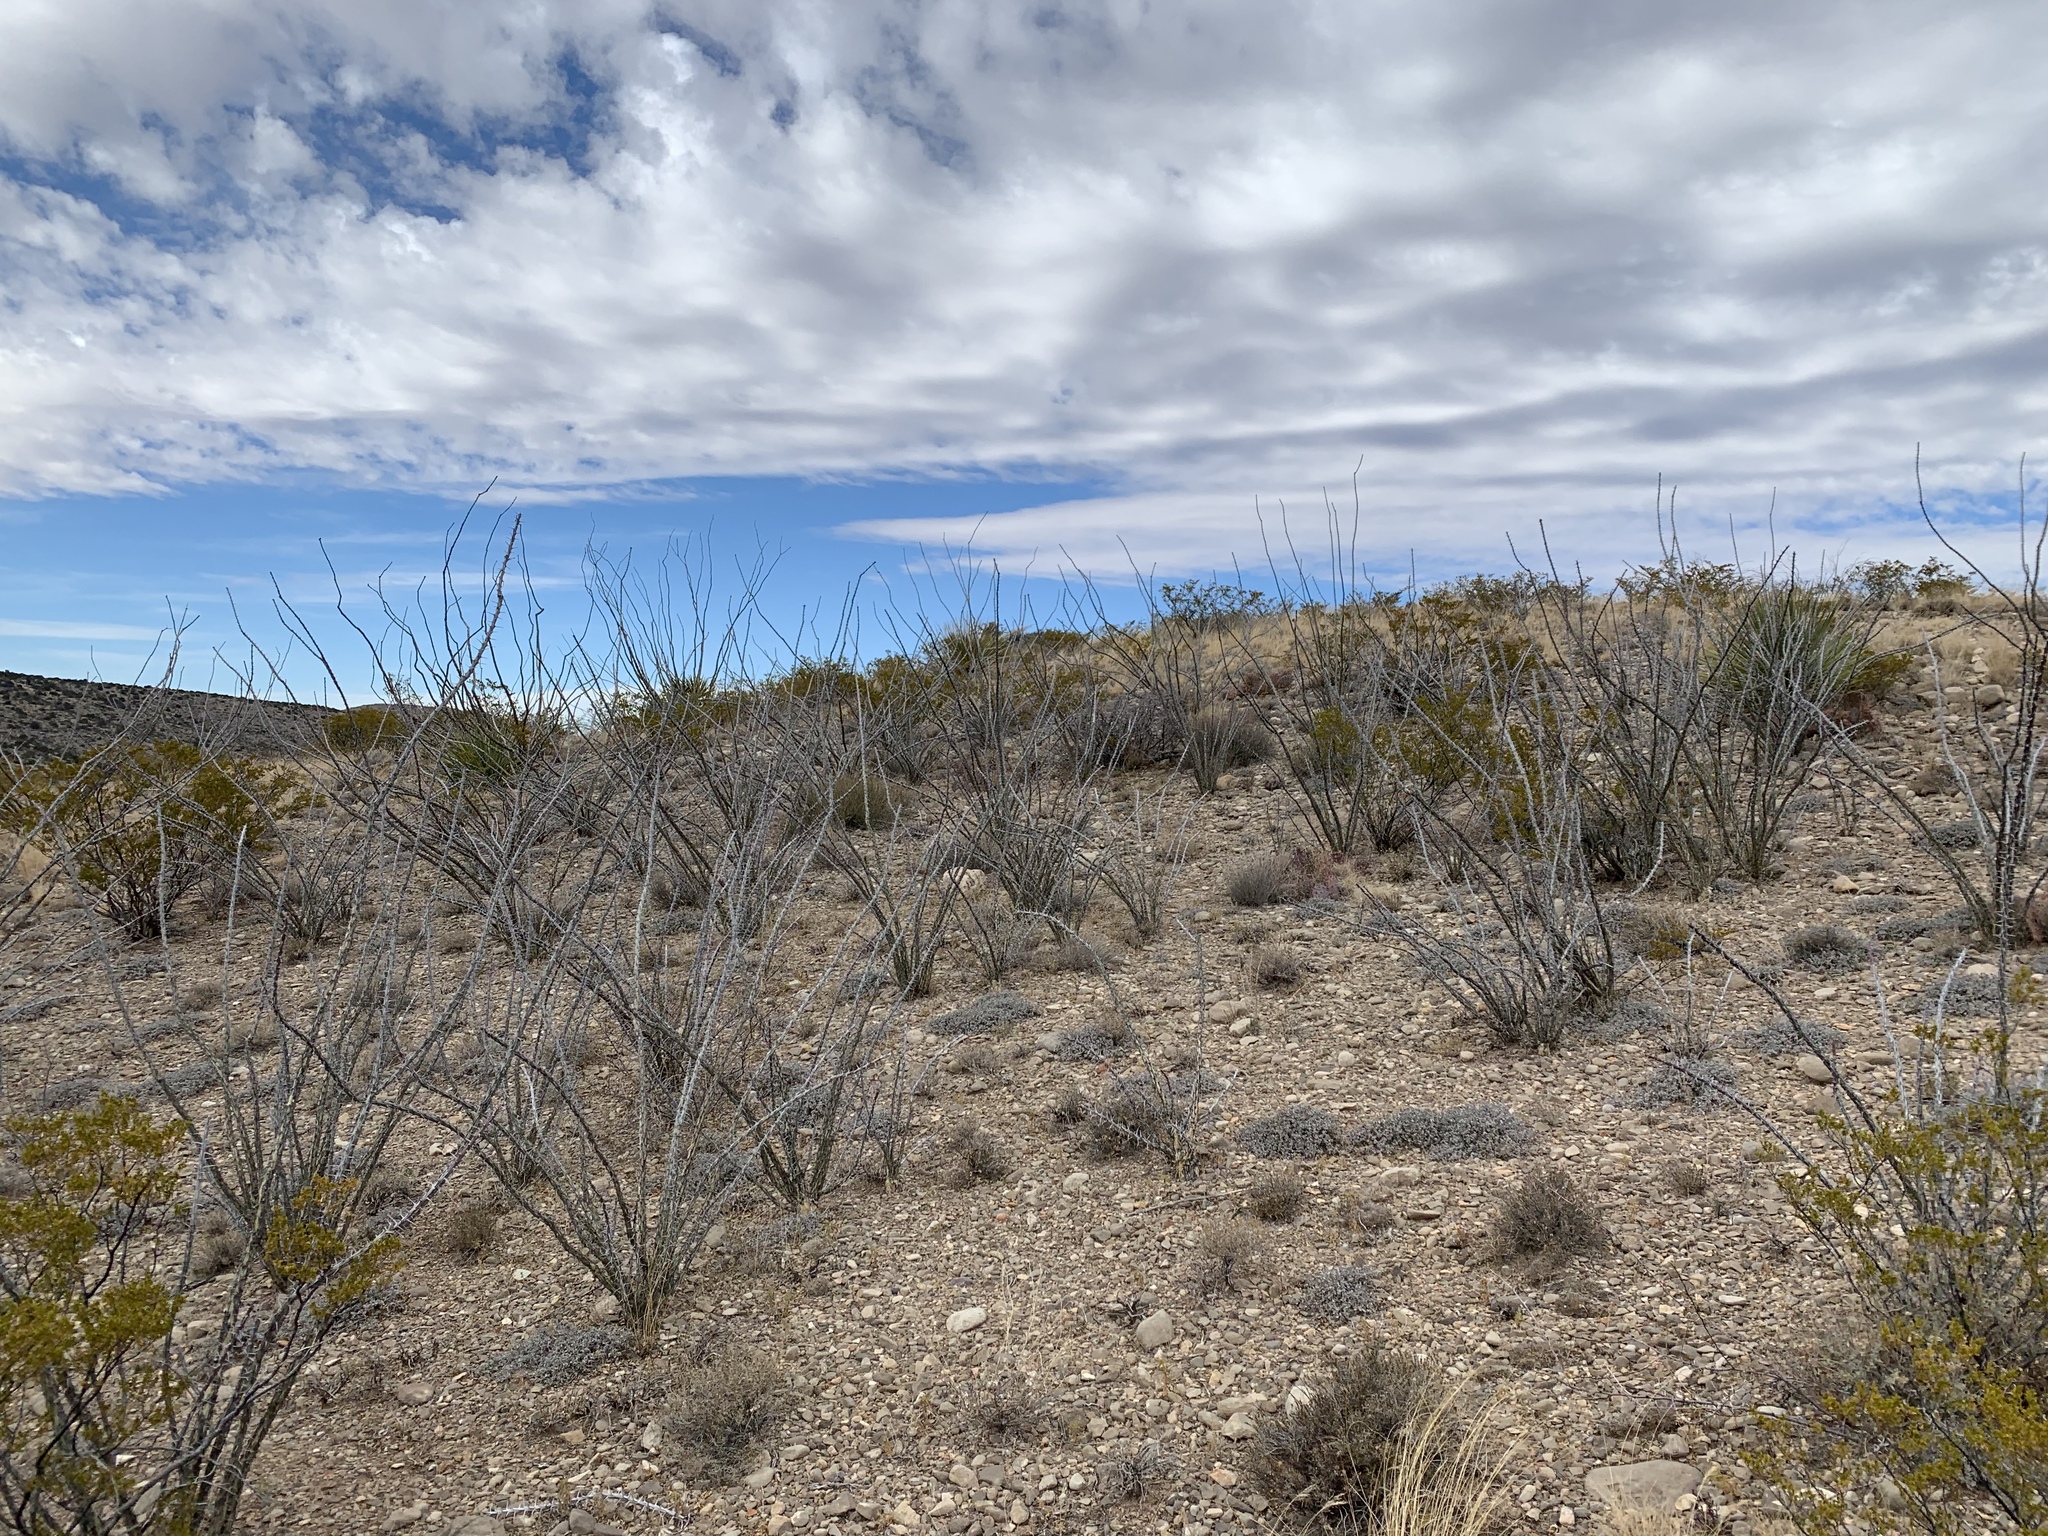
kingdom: Plantae
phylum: Tracheophyta
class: Magnoliopsida
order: Ericales
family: Fouquieriaceae
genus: Fouquieria
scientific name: Fouquieria splendens
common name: Vine-cactus
